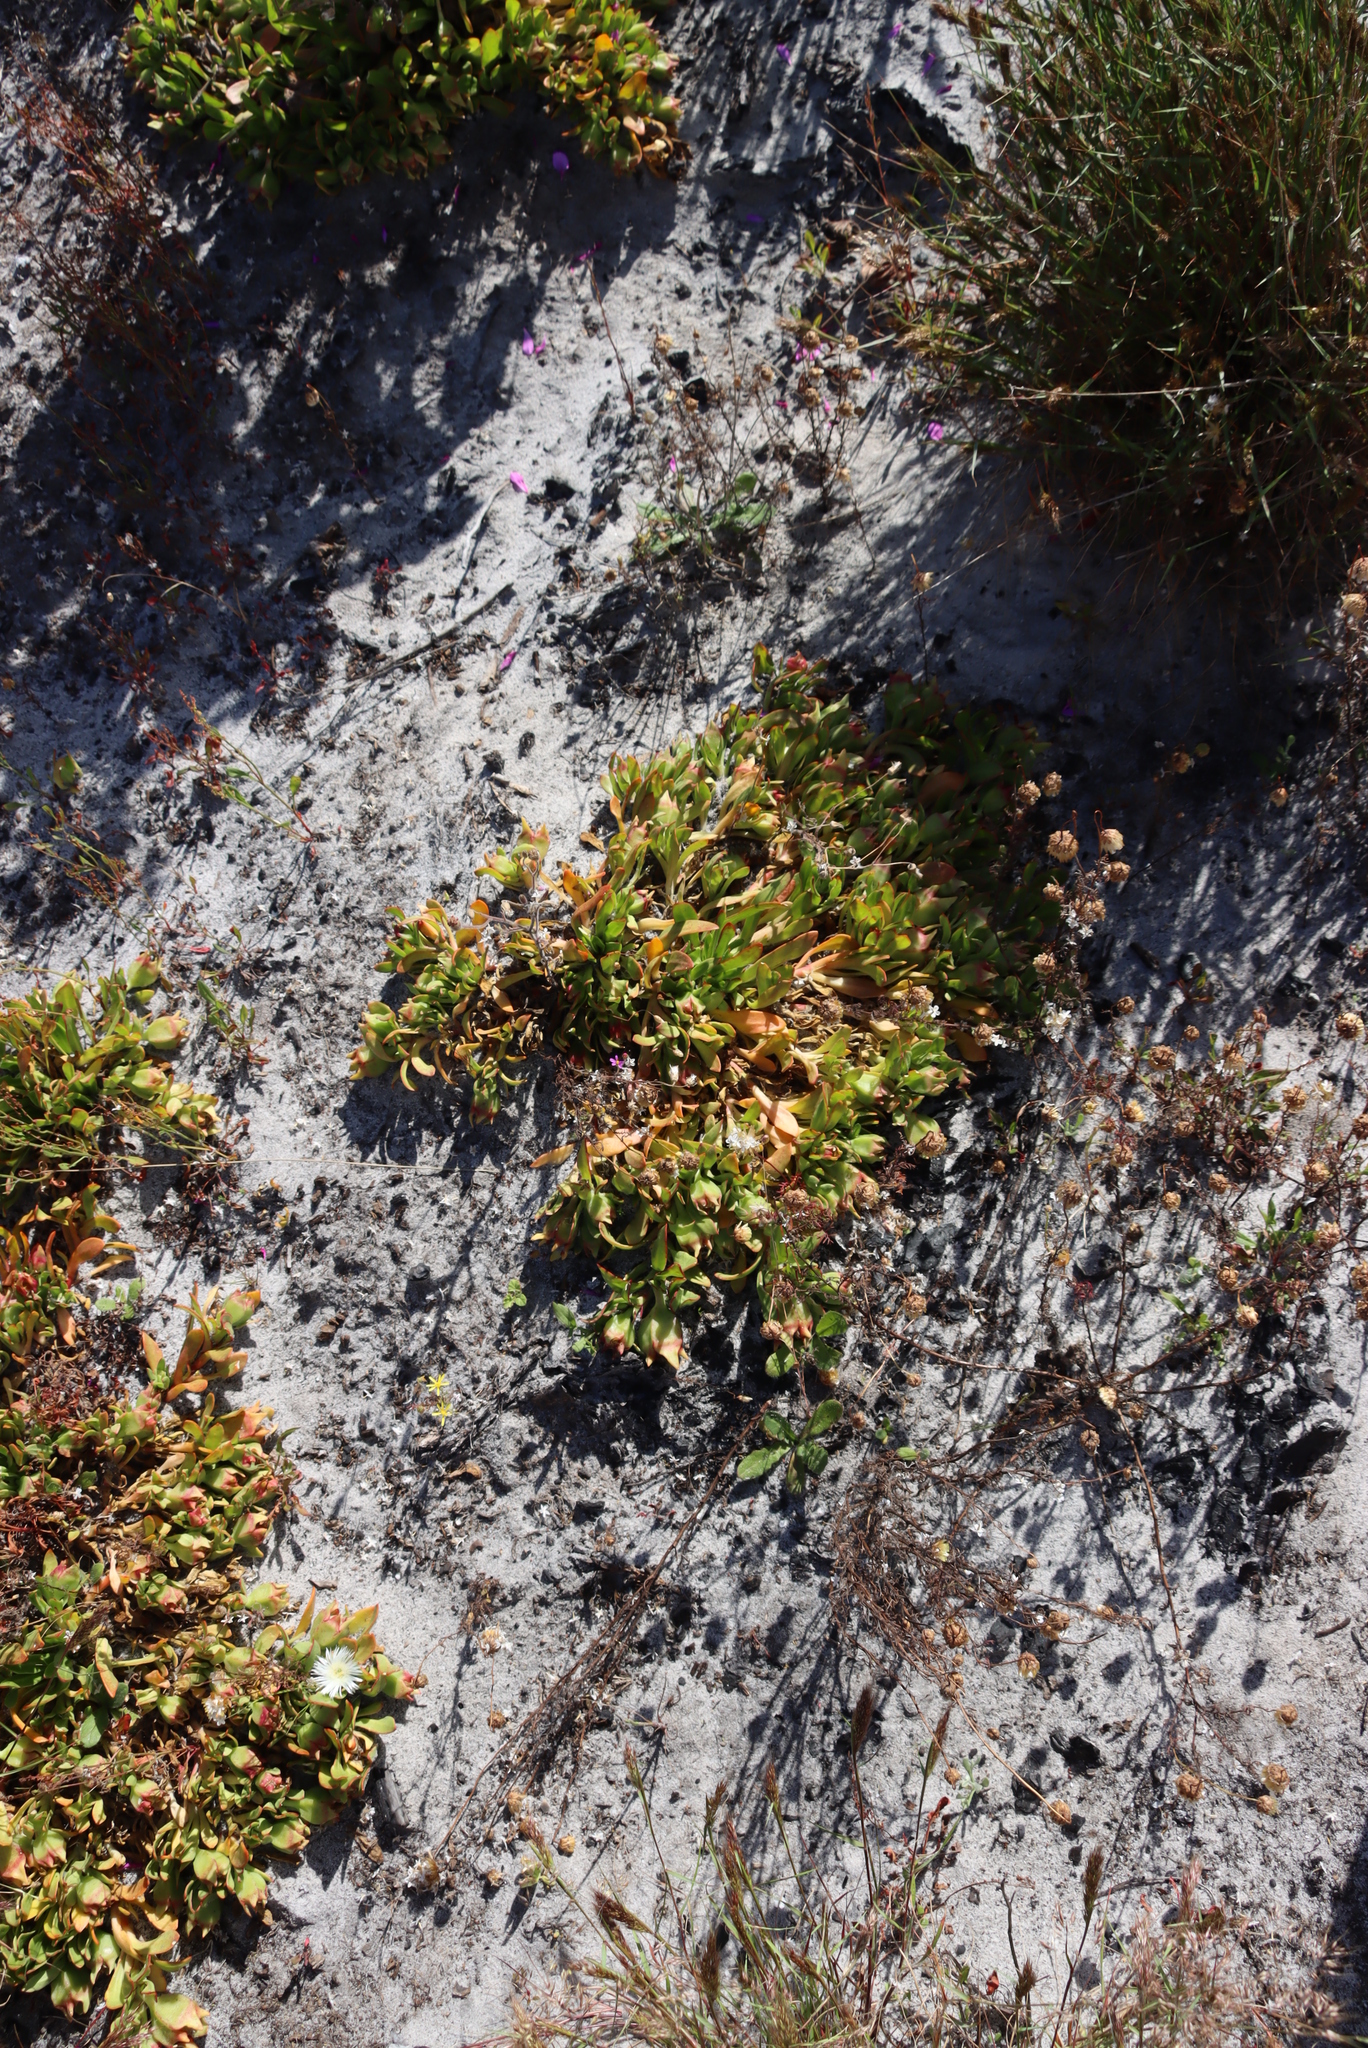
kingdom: Plantae
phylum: Tracheophyta
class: Magnoliopsida
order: Caryophyllales
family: Aizoaceae
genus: Skiatophytum
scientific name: Skiatophytum tripolium
